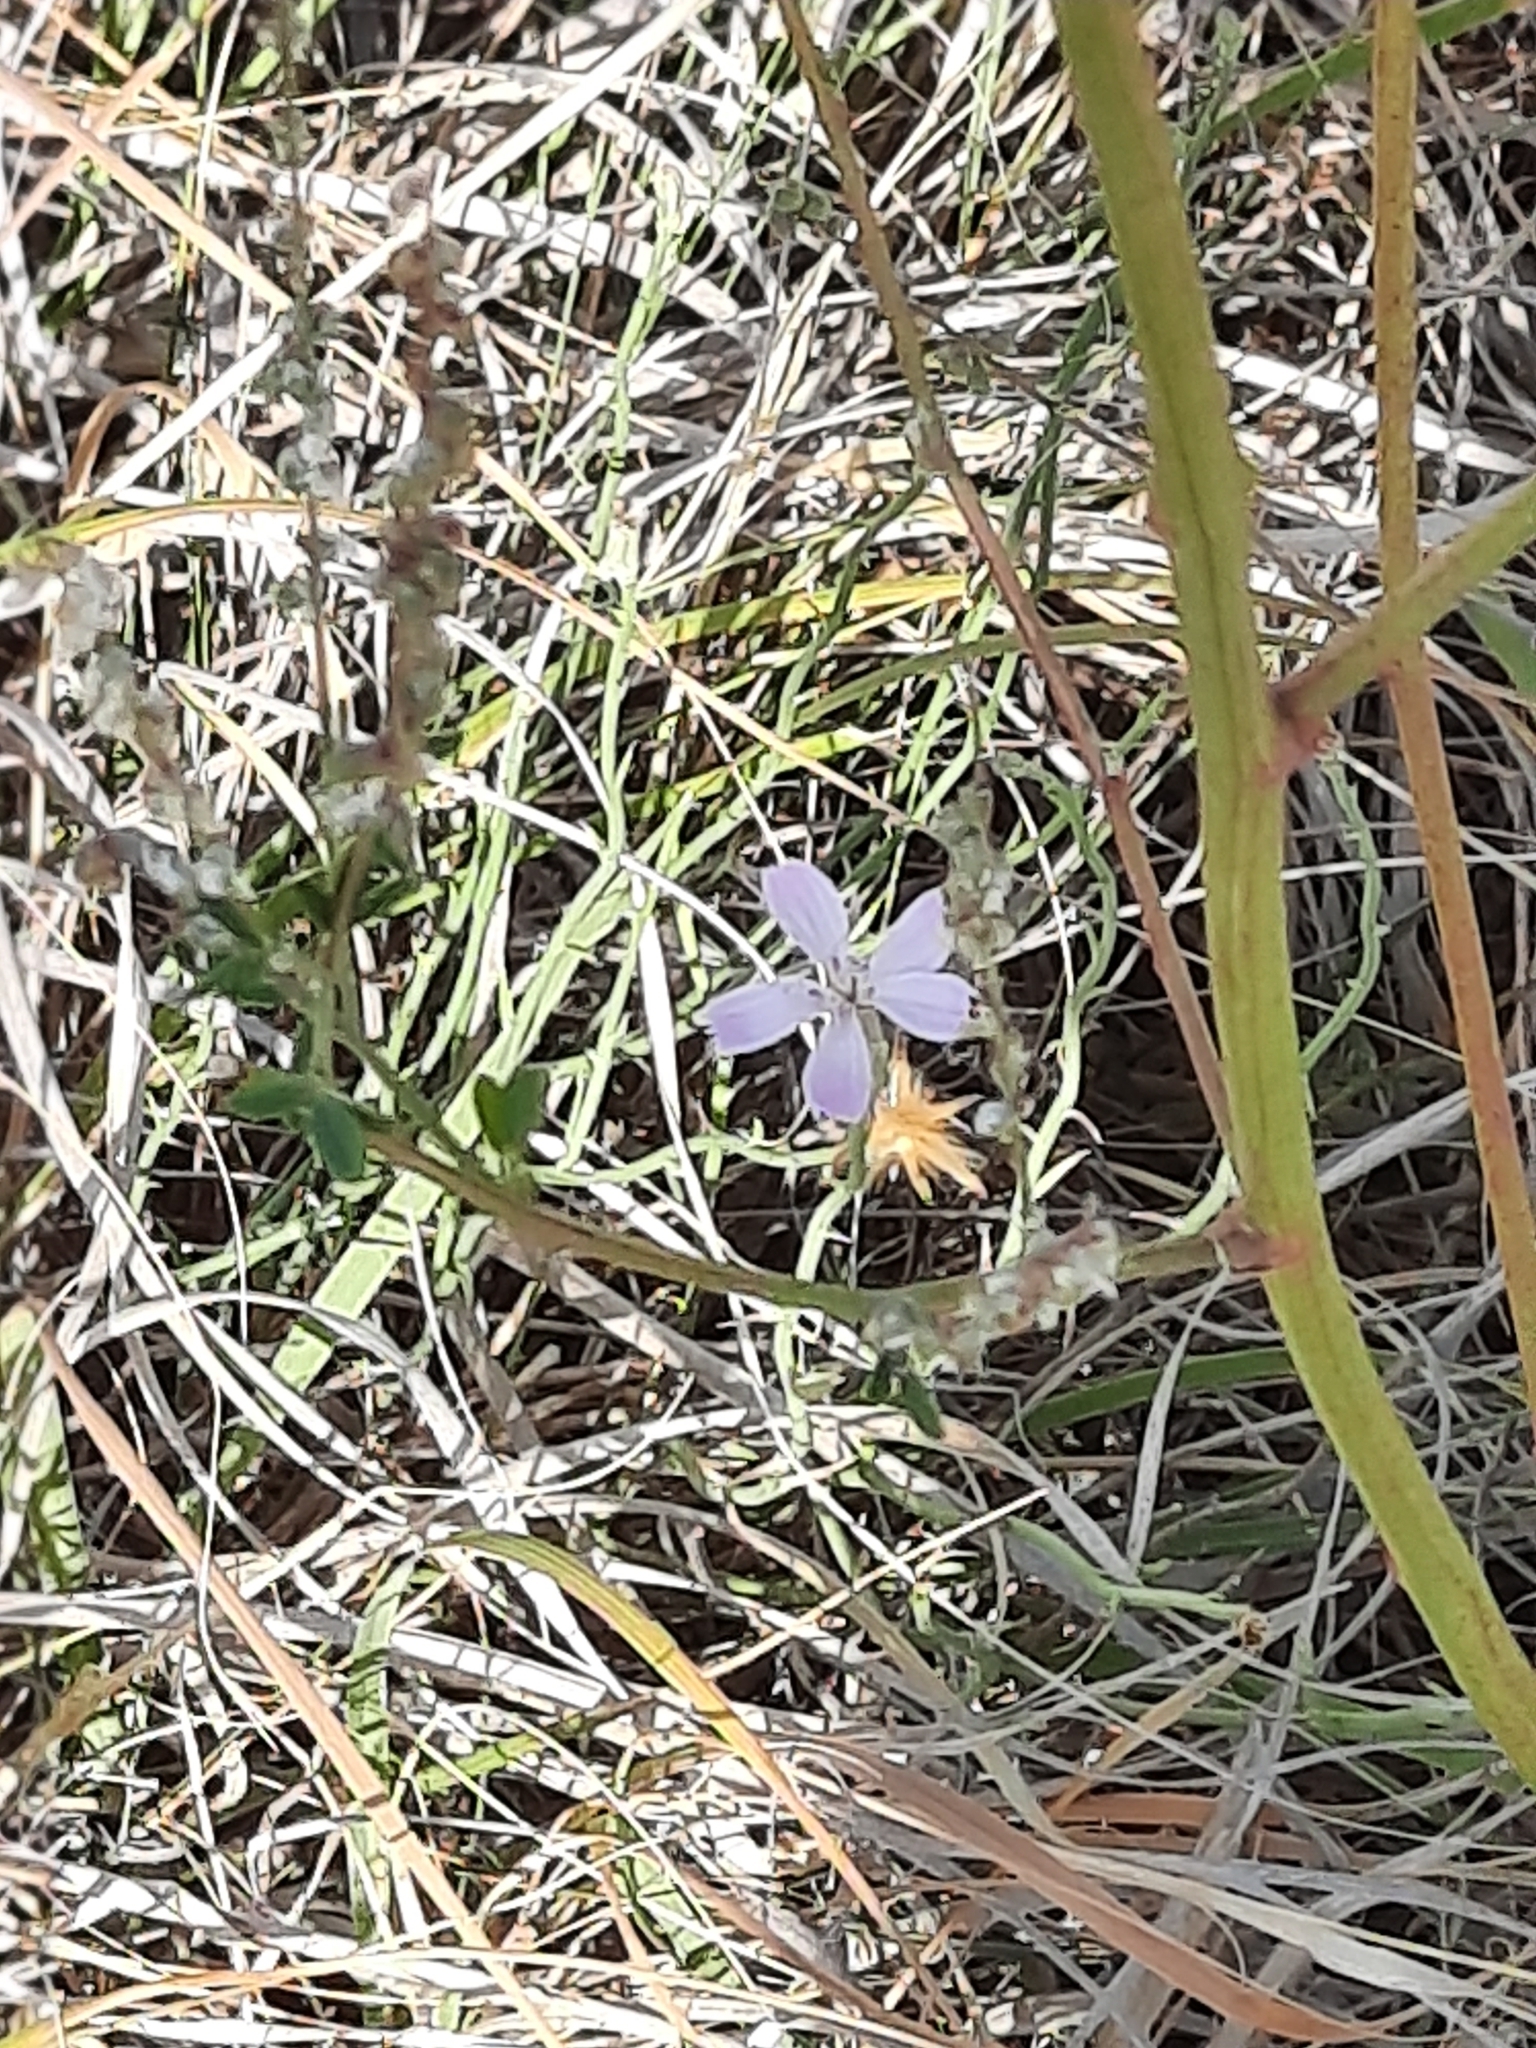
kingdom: Plantae
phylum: Tracheophyta
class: Magnoliopsida
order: Asterales
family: Asteraceae
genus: Lygodesmia
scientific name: Lygodesmia juncea
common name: Common skeletonweed
